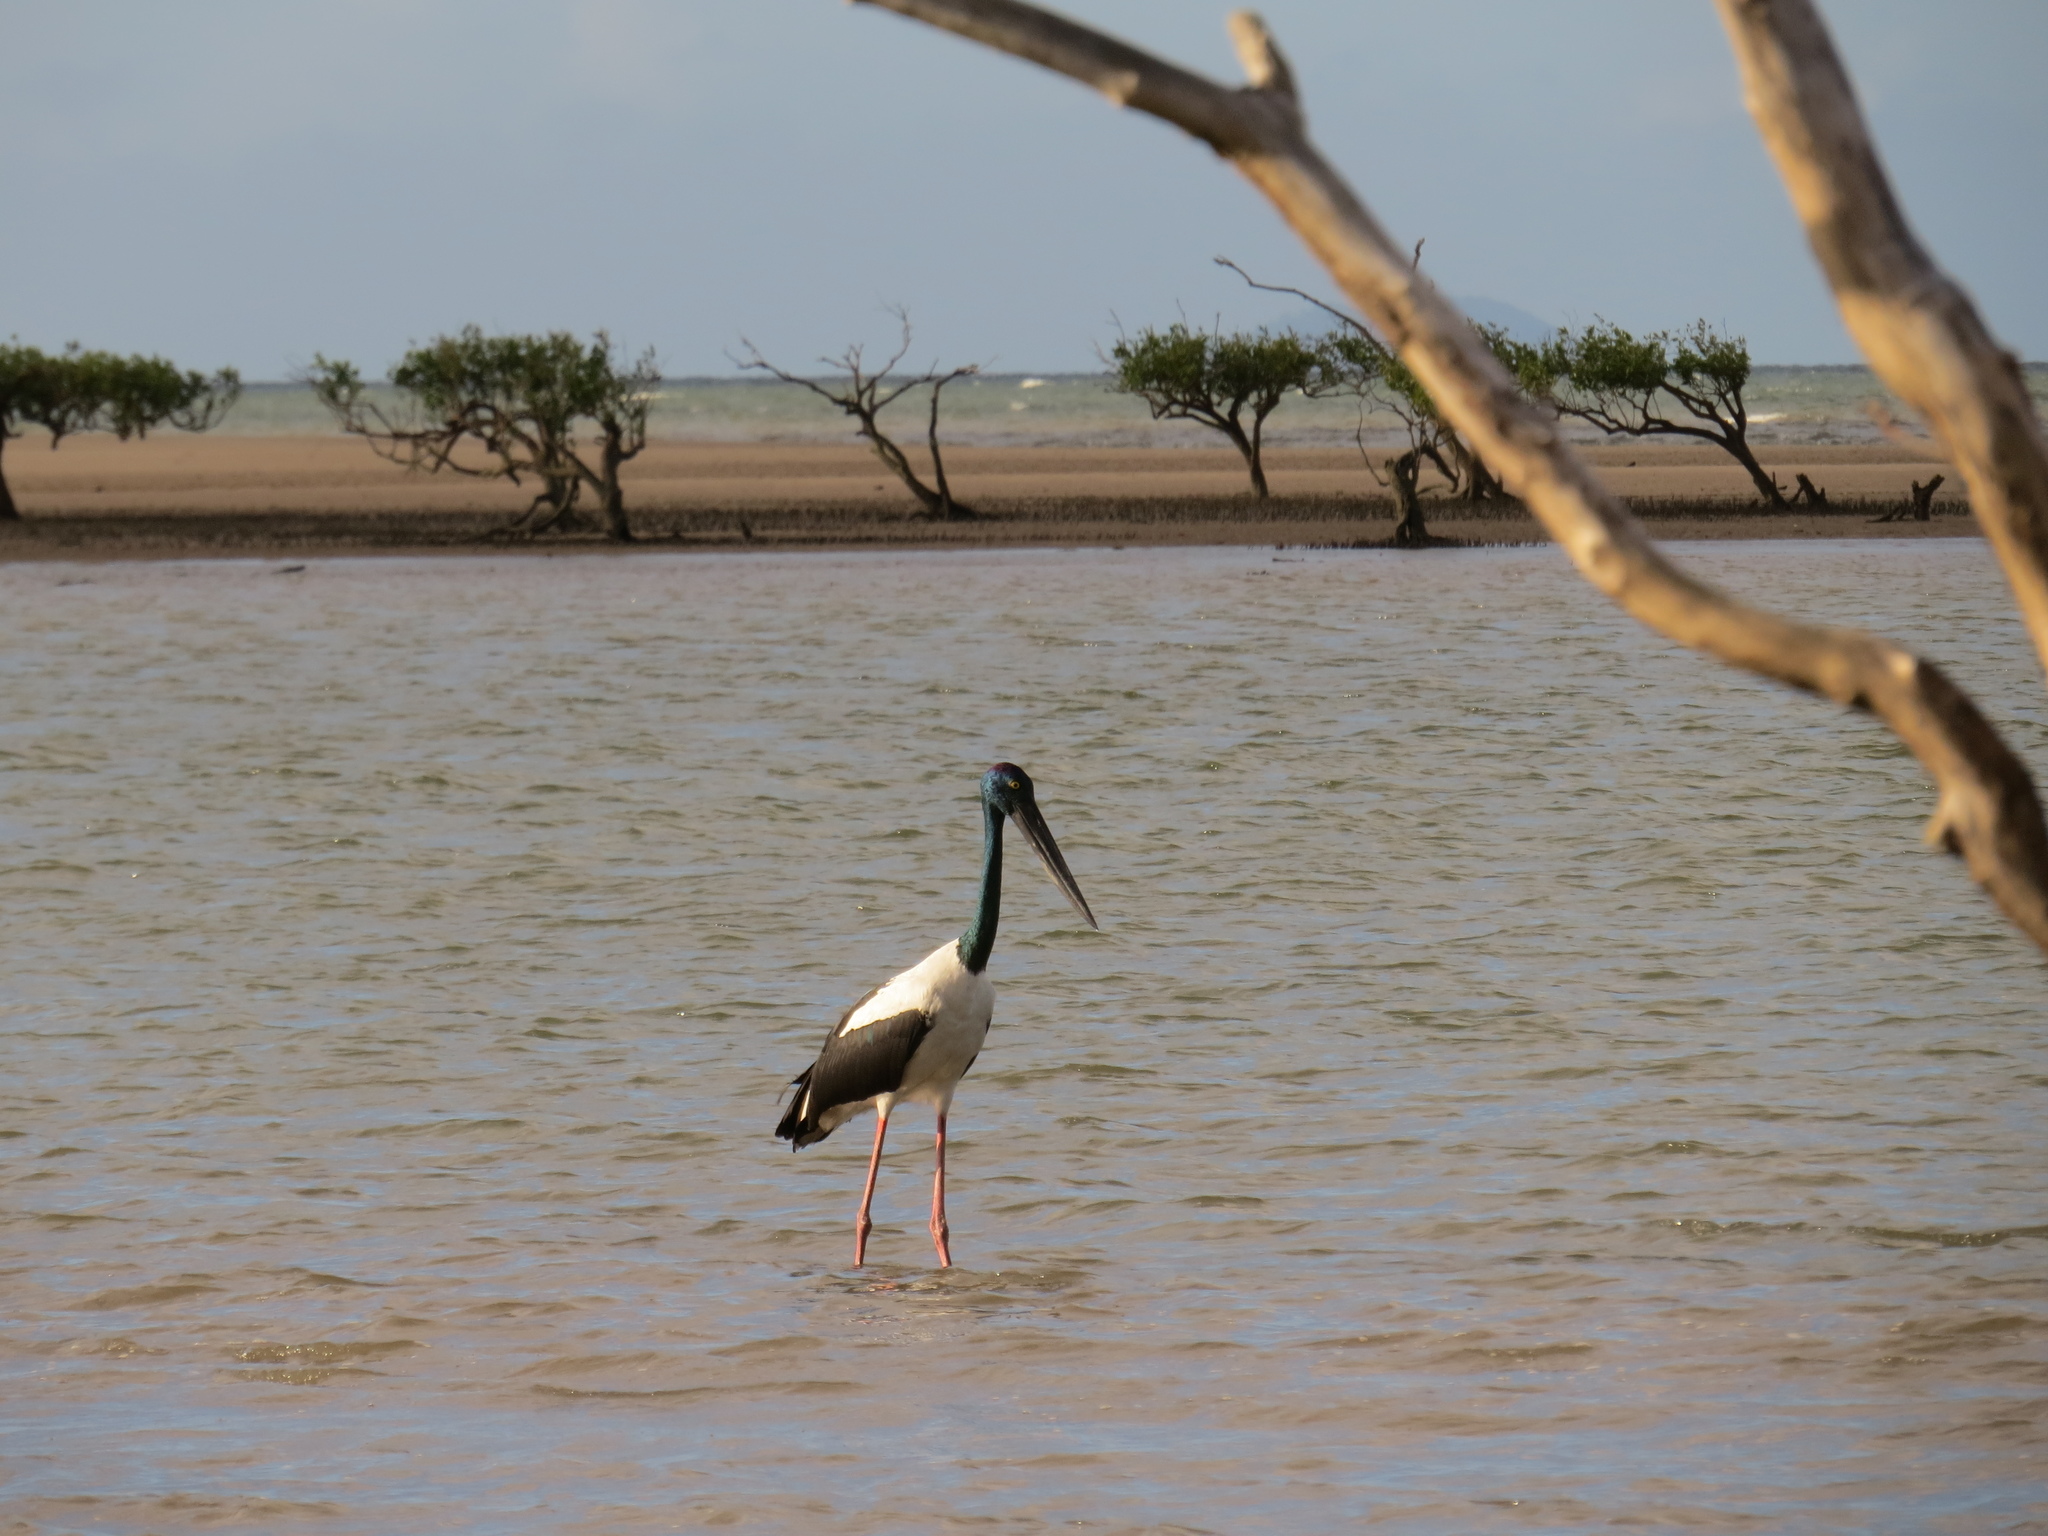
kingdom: Animalia
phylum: Chordata
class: Aves
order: Ciconiiformes
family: Ciconiidae
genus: Ephippiorhynchus
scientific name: Ephippiorhynchus asiaticus
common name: Black-necked stork
